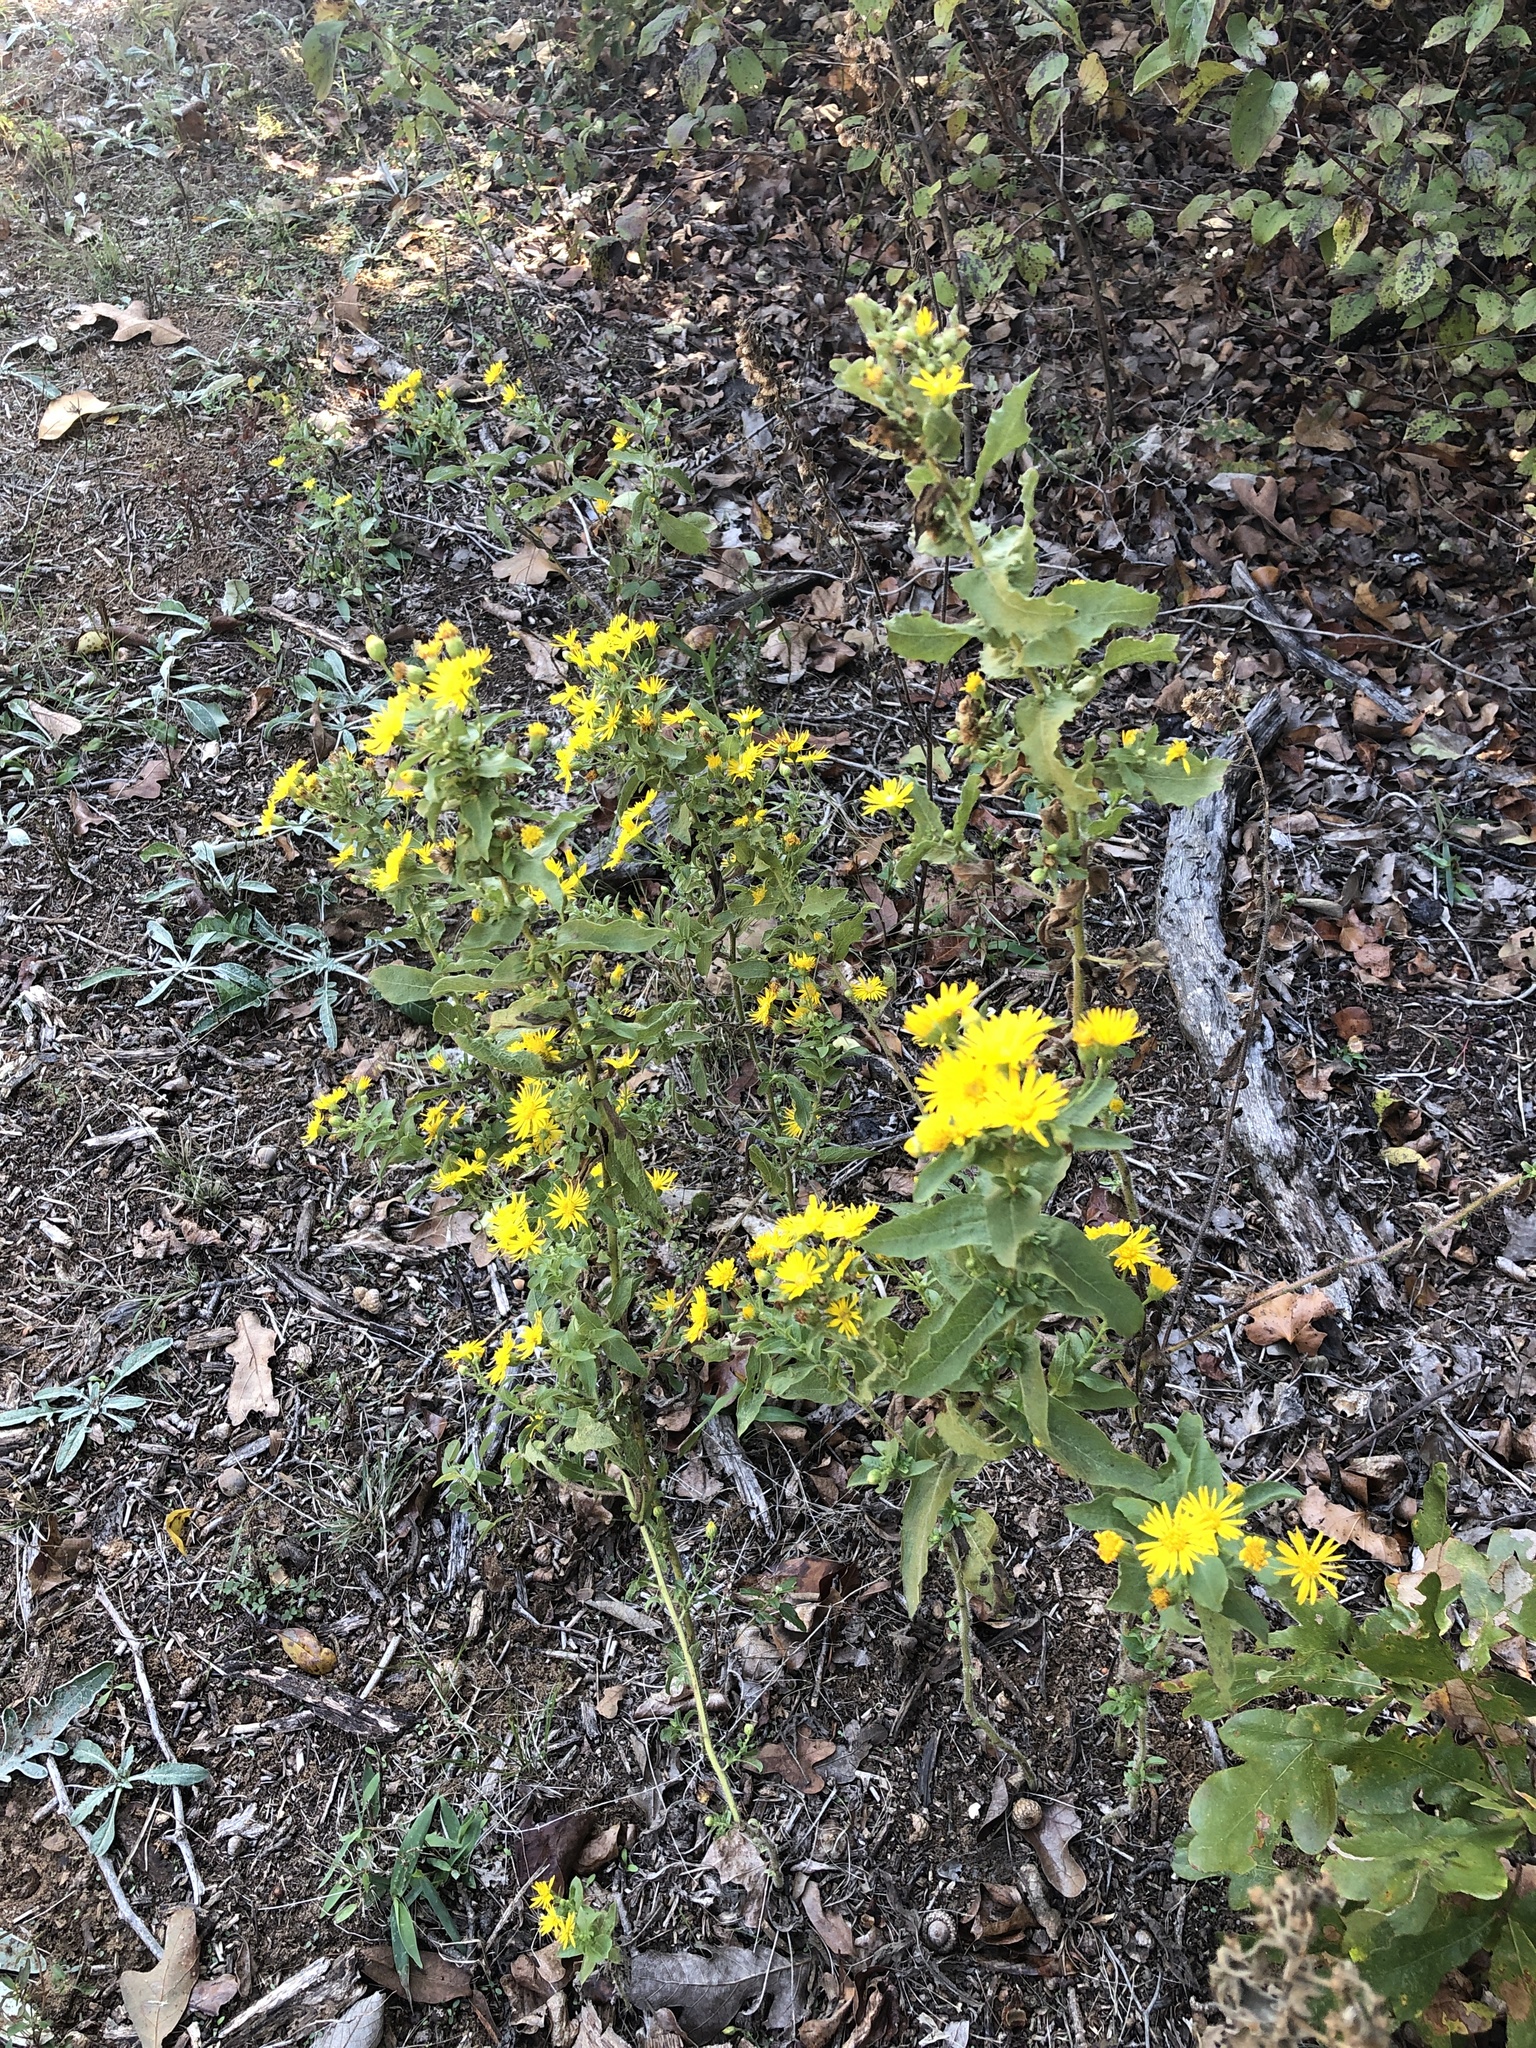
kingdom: Plantae
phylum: Tracheophyta
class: Magnoliopsida
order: Asterales
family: Asteraceae
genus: Heterotheca
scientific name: Heterotheca subaxillaris
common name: Camphorweed
